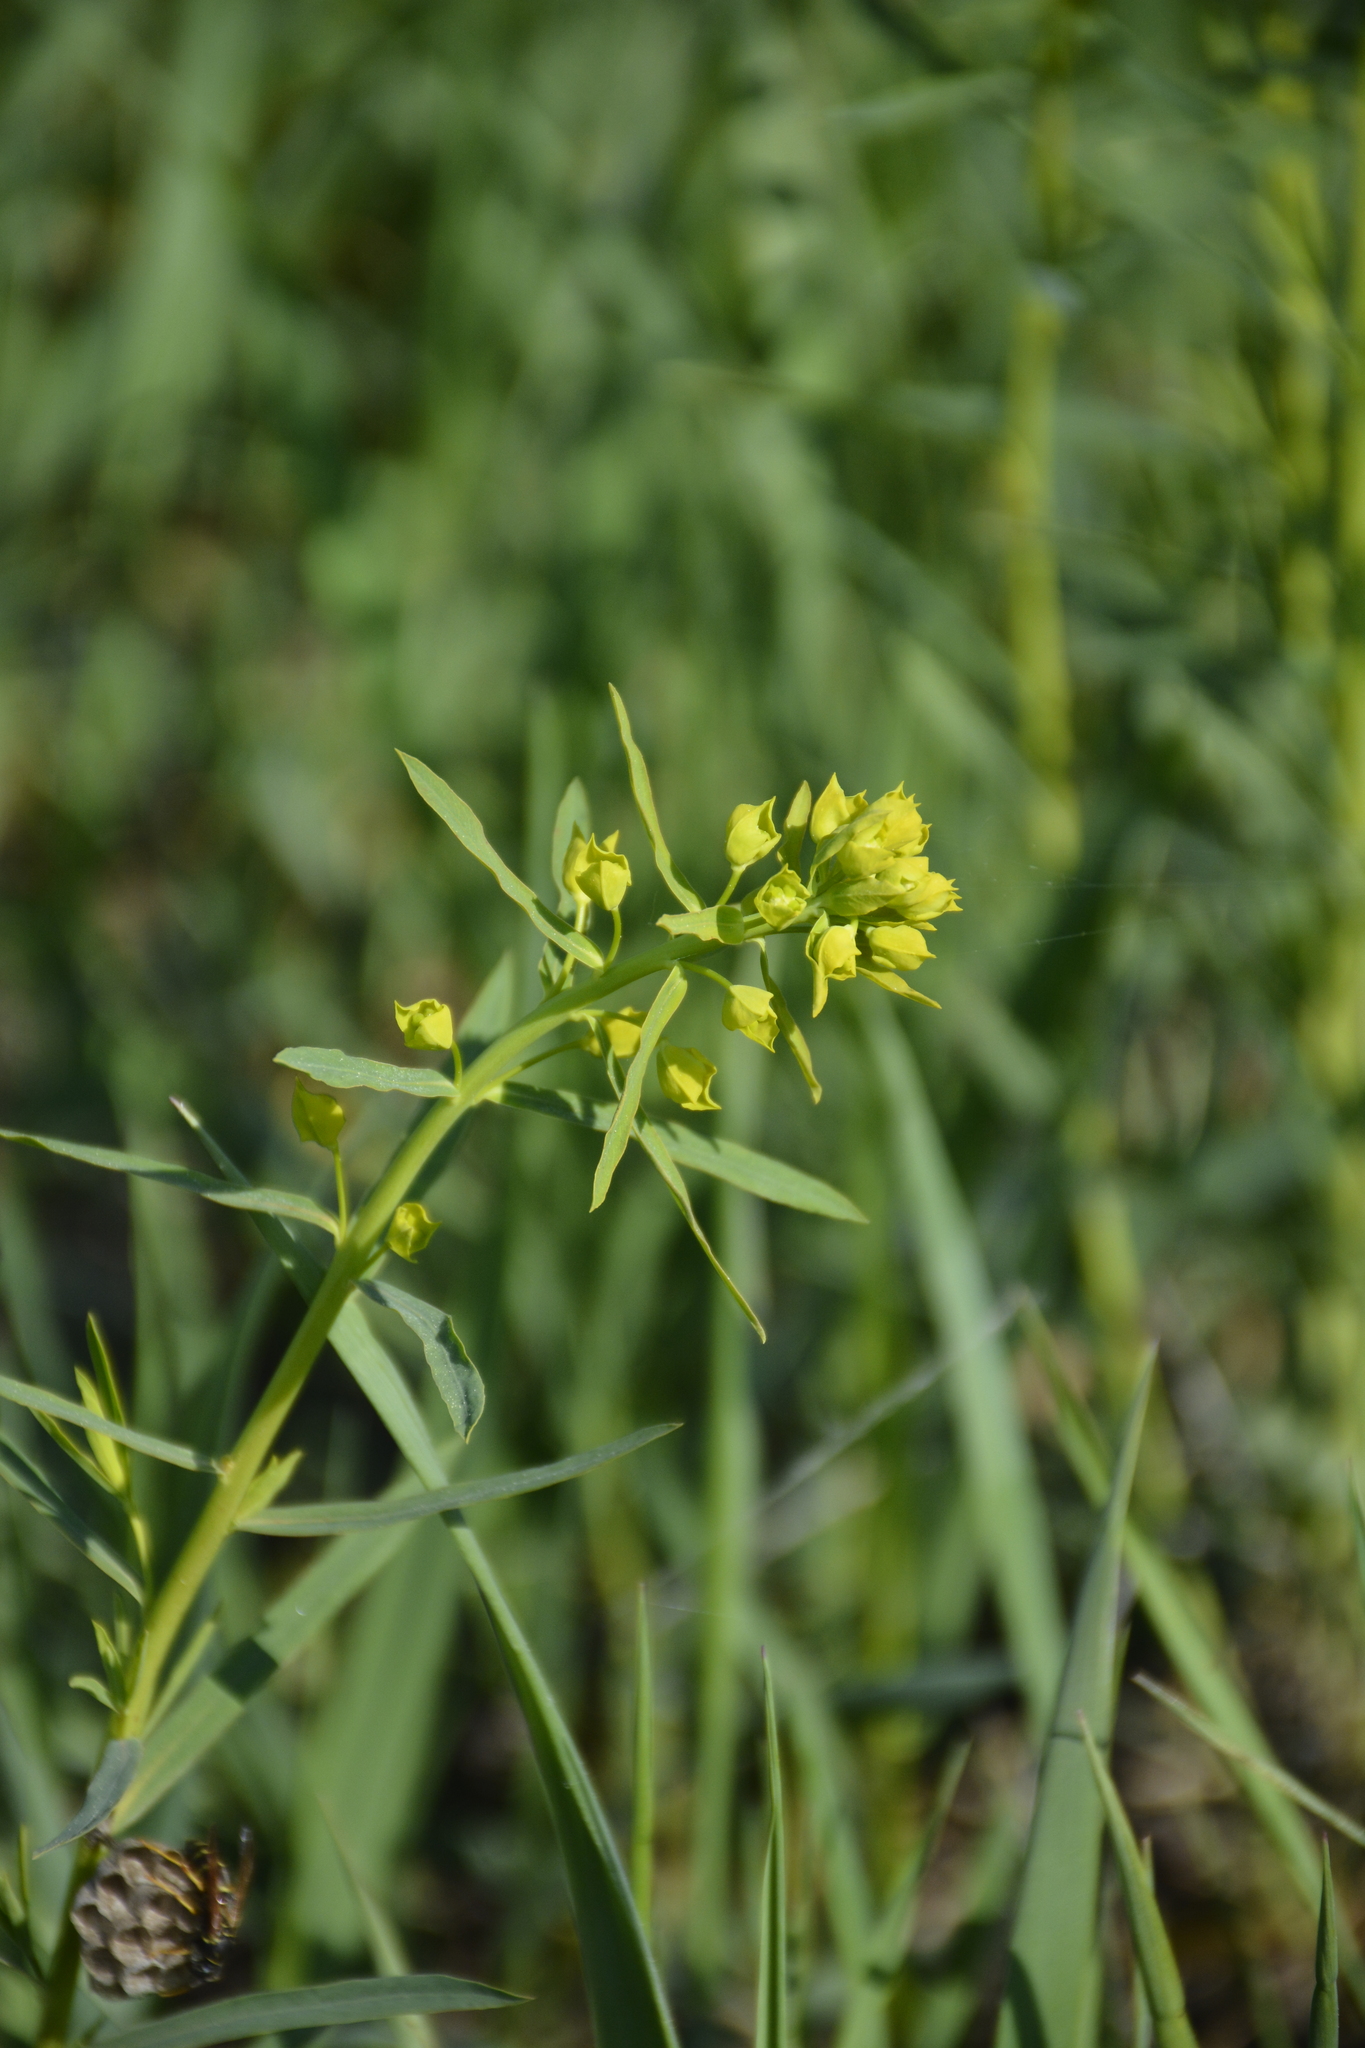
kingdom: Plantae
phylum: Tracheophyta
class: Magnoliopsida
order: Malpighiales
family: Euphorbiaceae
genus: Euphorbia
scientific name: Euphorbia virgata
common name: Leafy spurge
